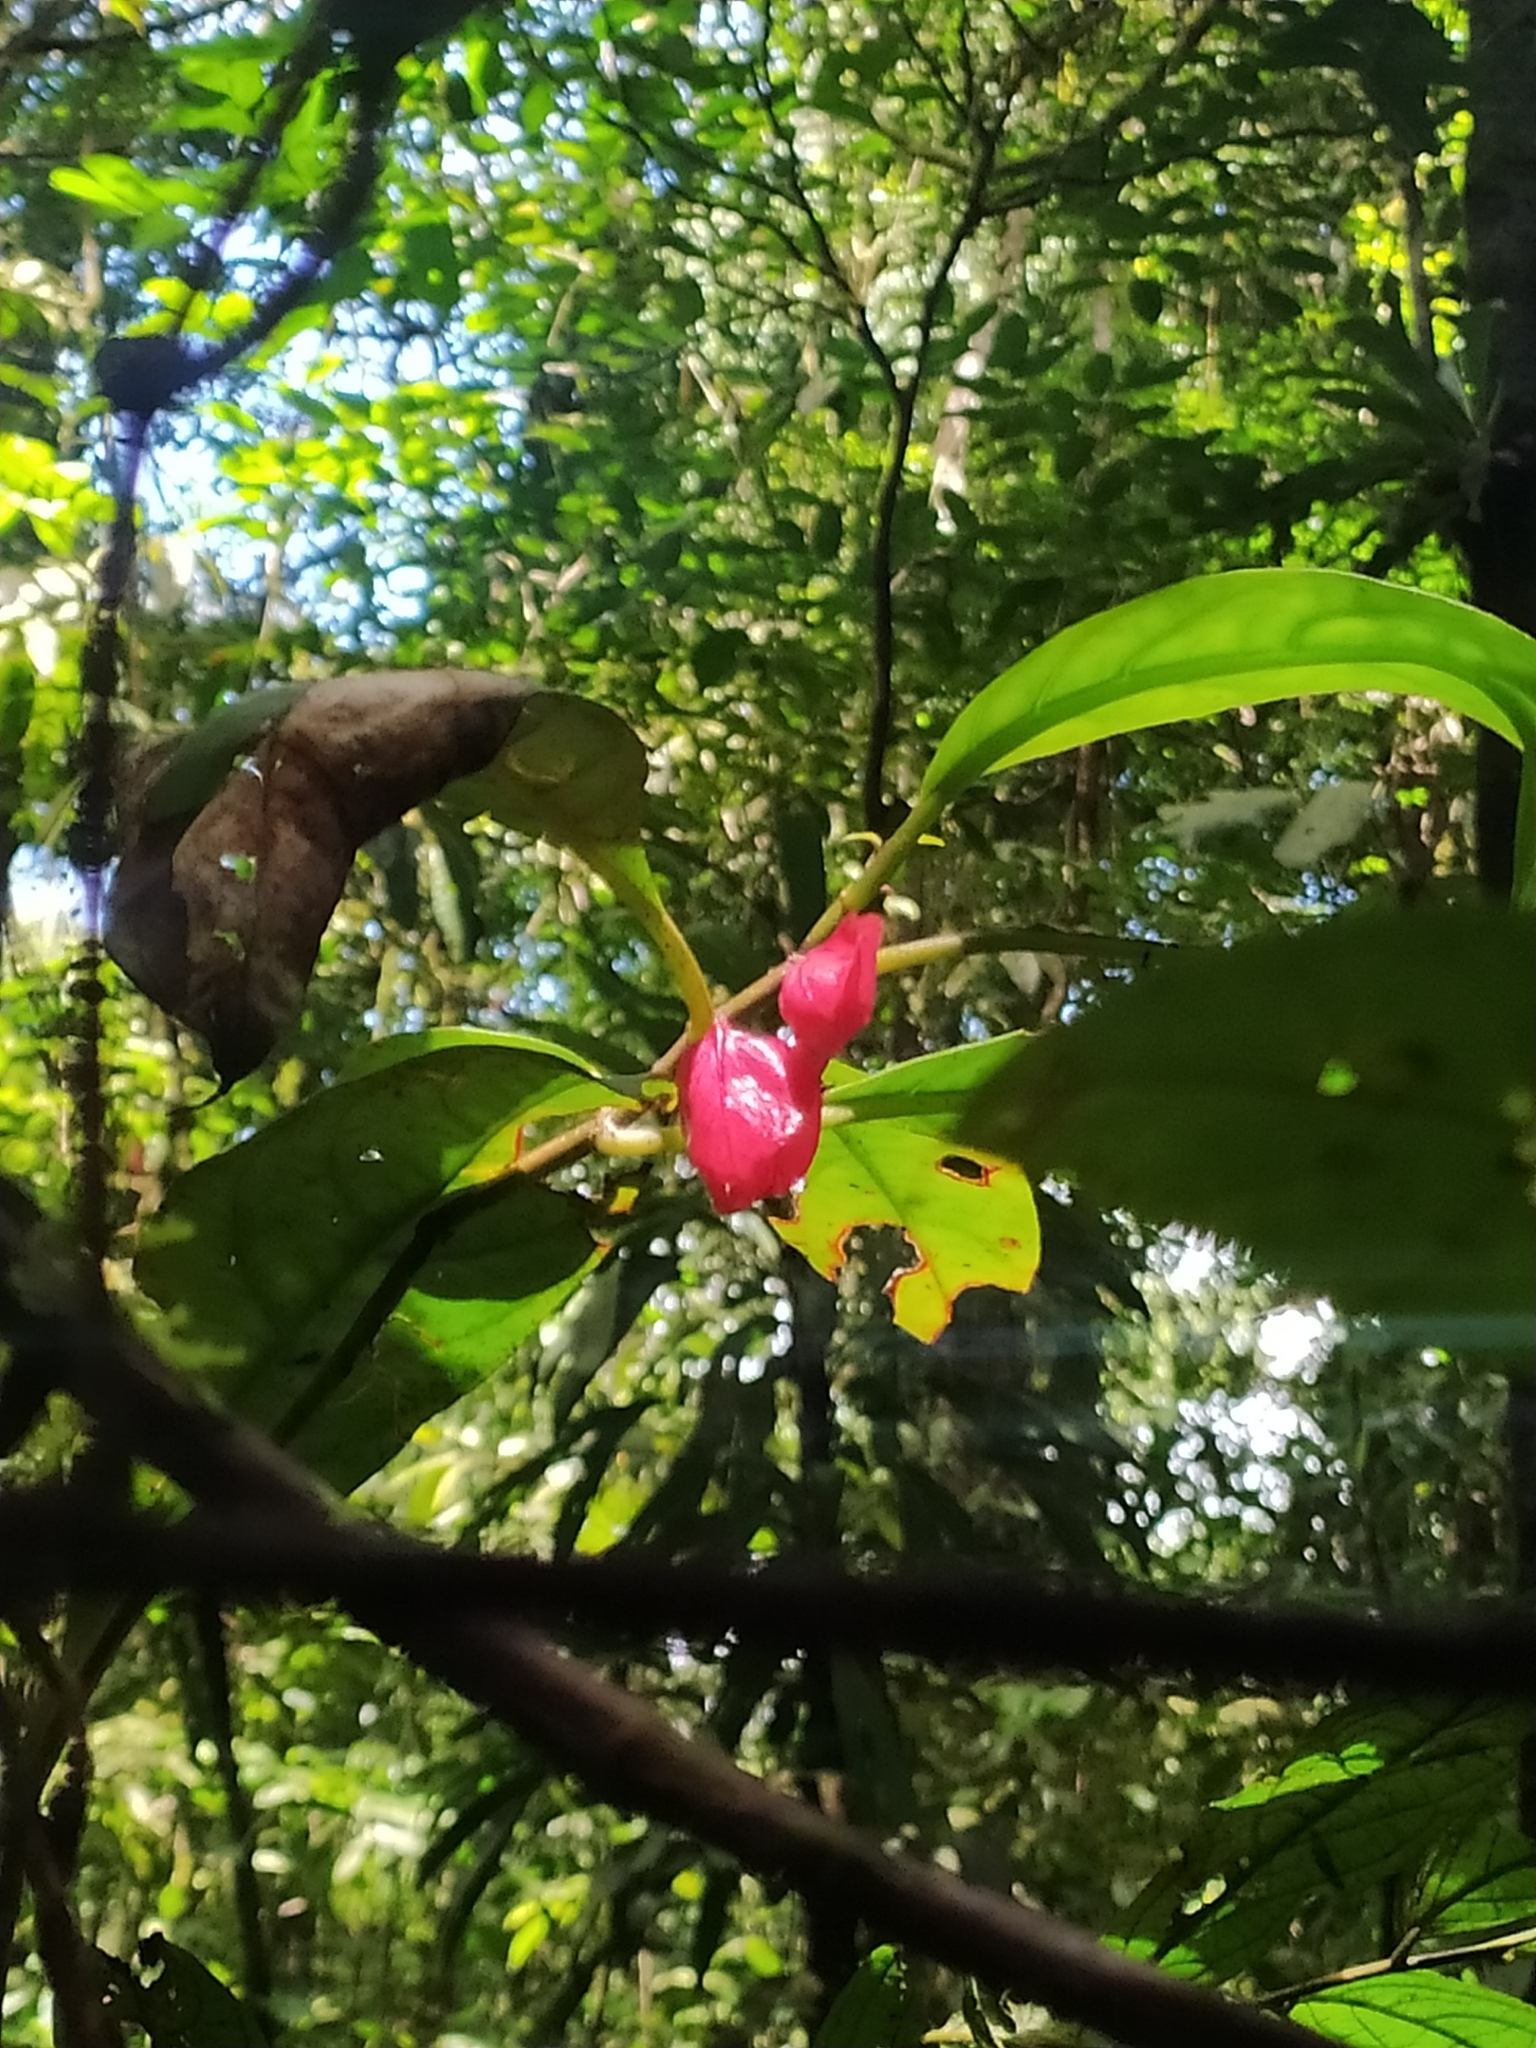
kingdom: Plantae
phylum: Tracheophyta
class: Magnoliopsida
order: Lamiales
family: Gesneriaceae
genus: Drymonia
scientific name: Drymonia coccinea
